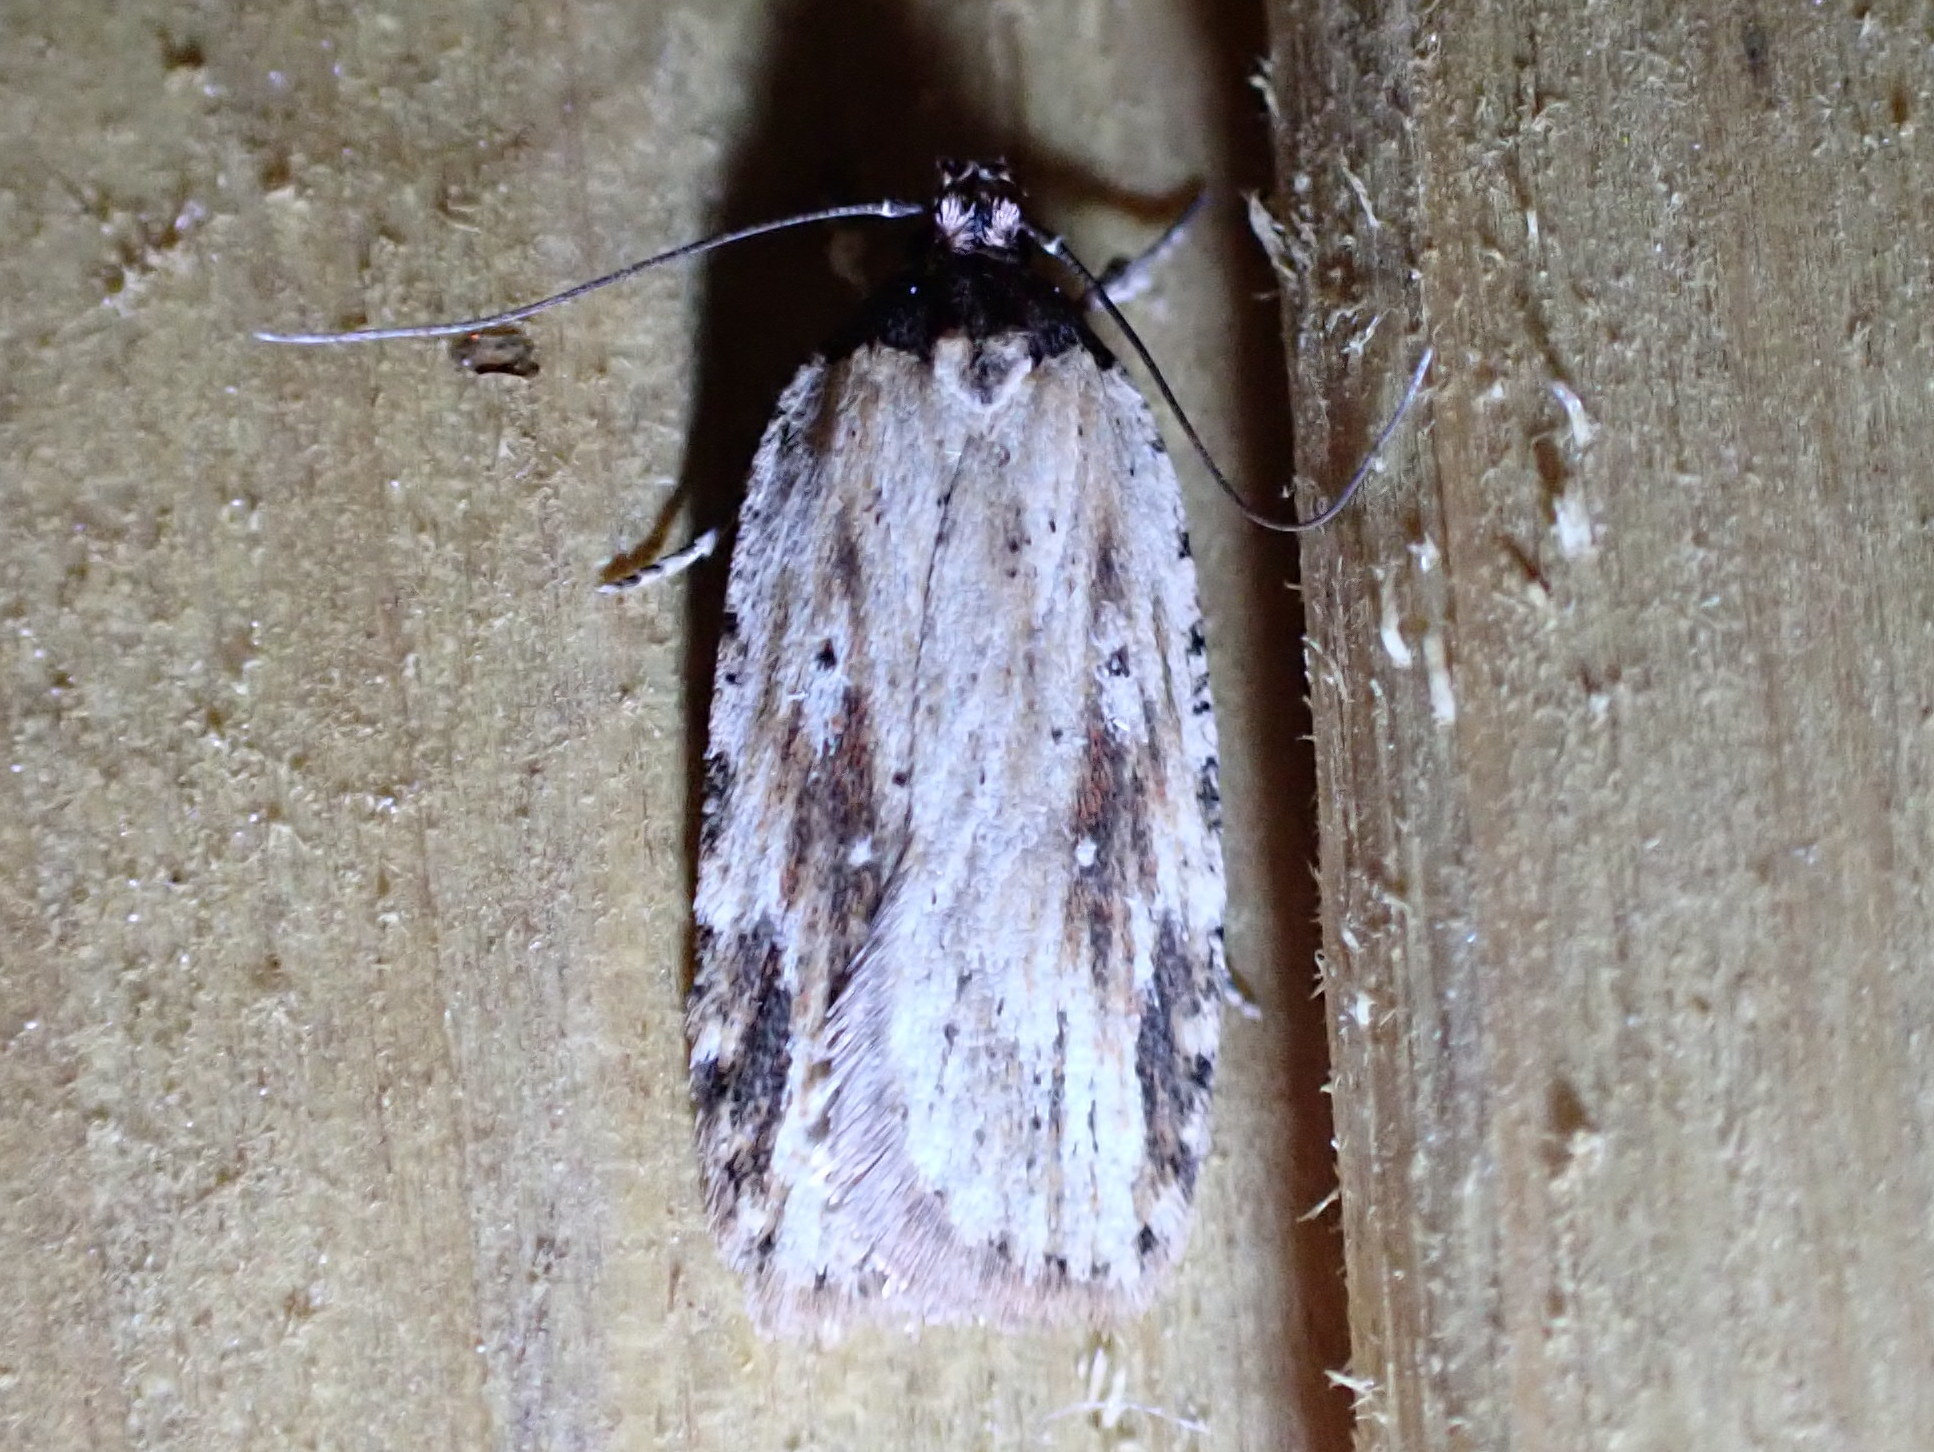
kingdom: Animalia
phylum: Arthropoda
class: Insecta
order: Lepidoptera
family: Depressariidae
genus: Agonopterix
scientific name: Agonopterix atrodorsella
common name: Beggartick leaffolder
